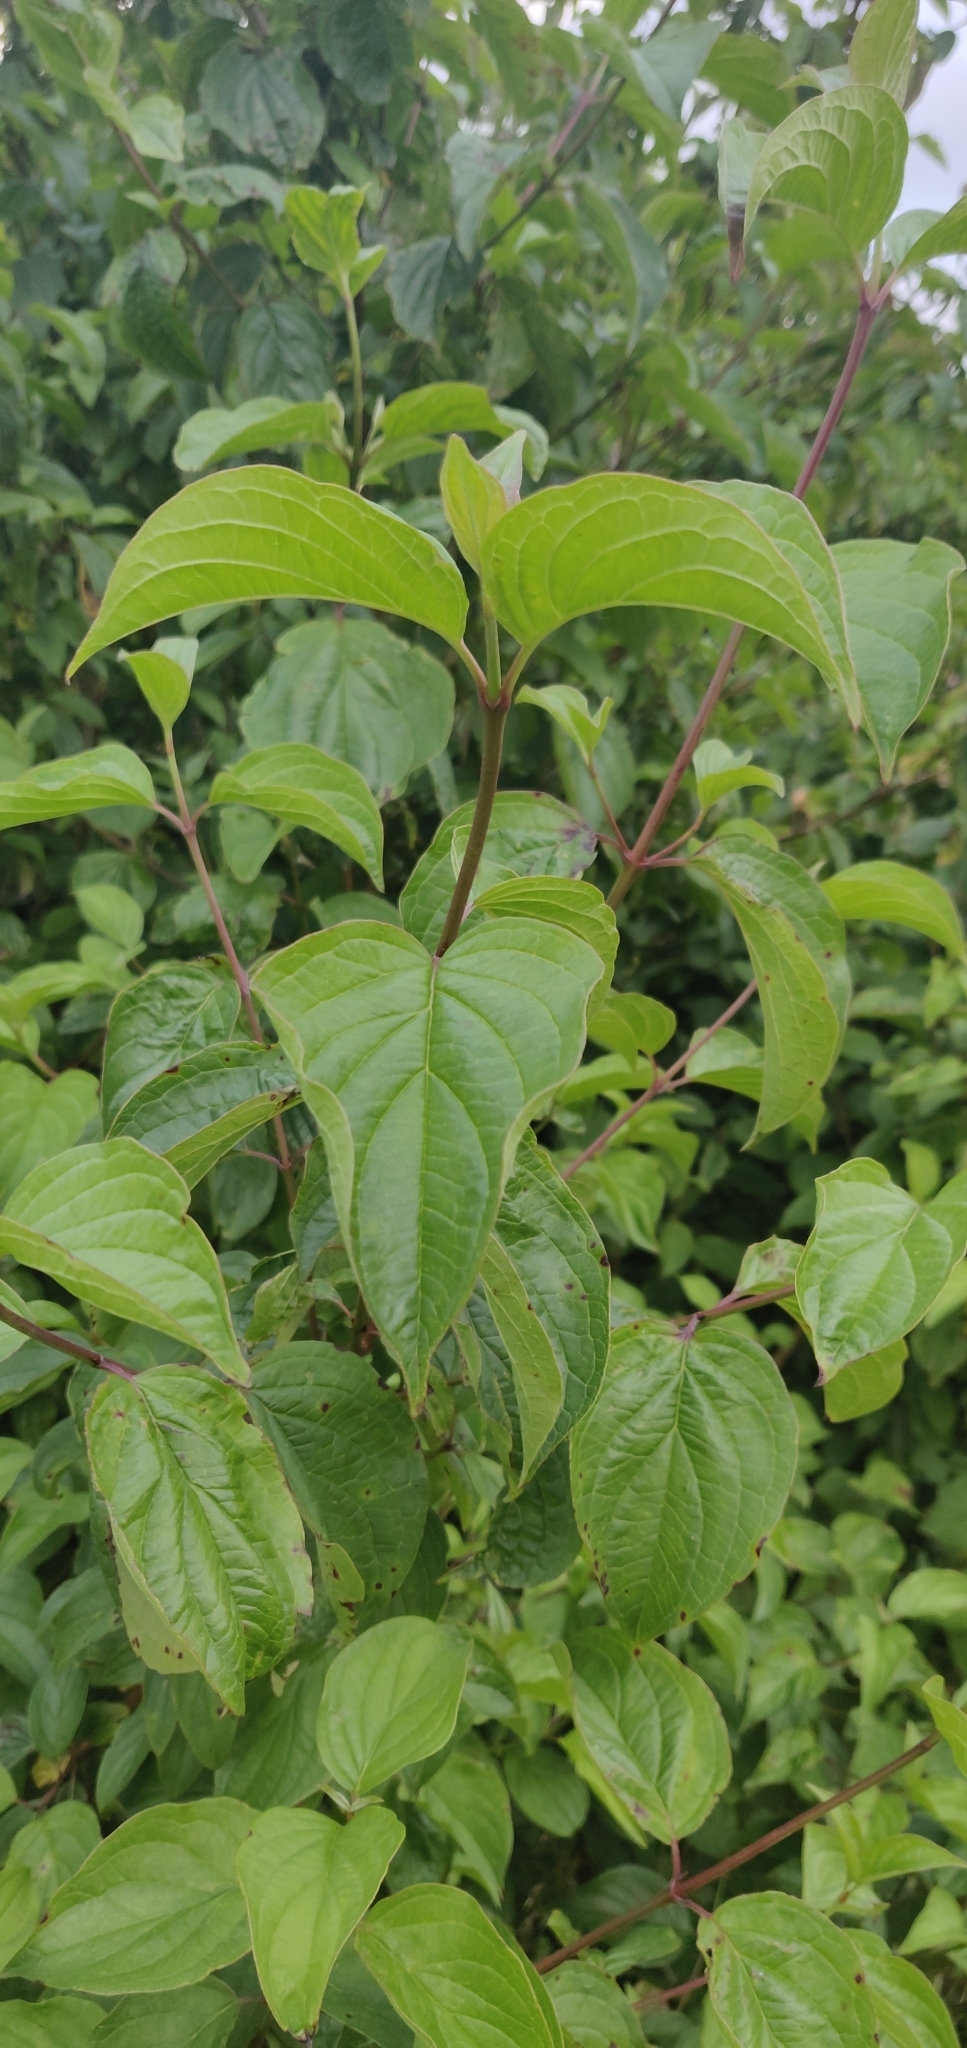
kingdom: Plantae
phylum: Tracheophyta
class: Magnoliopsida
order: Cornales
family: Cornaceae
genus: Cornus
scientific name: Cornus sanguinea
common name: Dogwood
